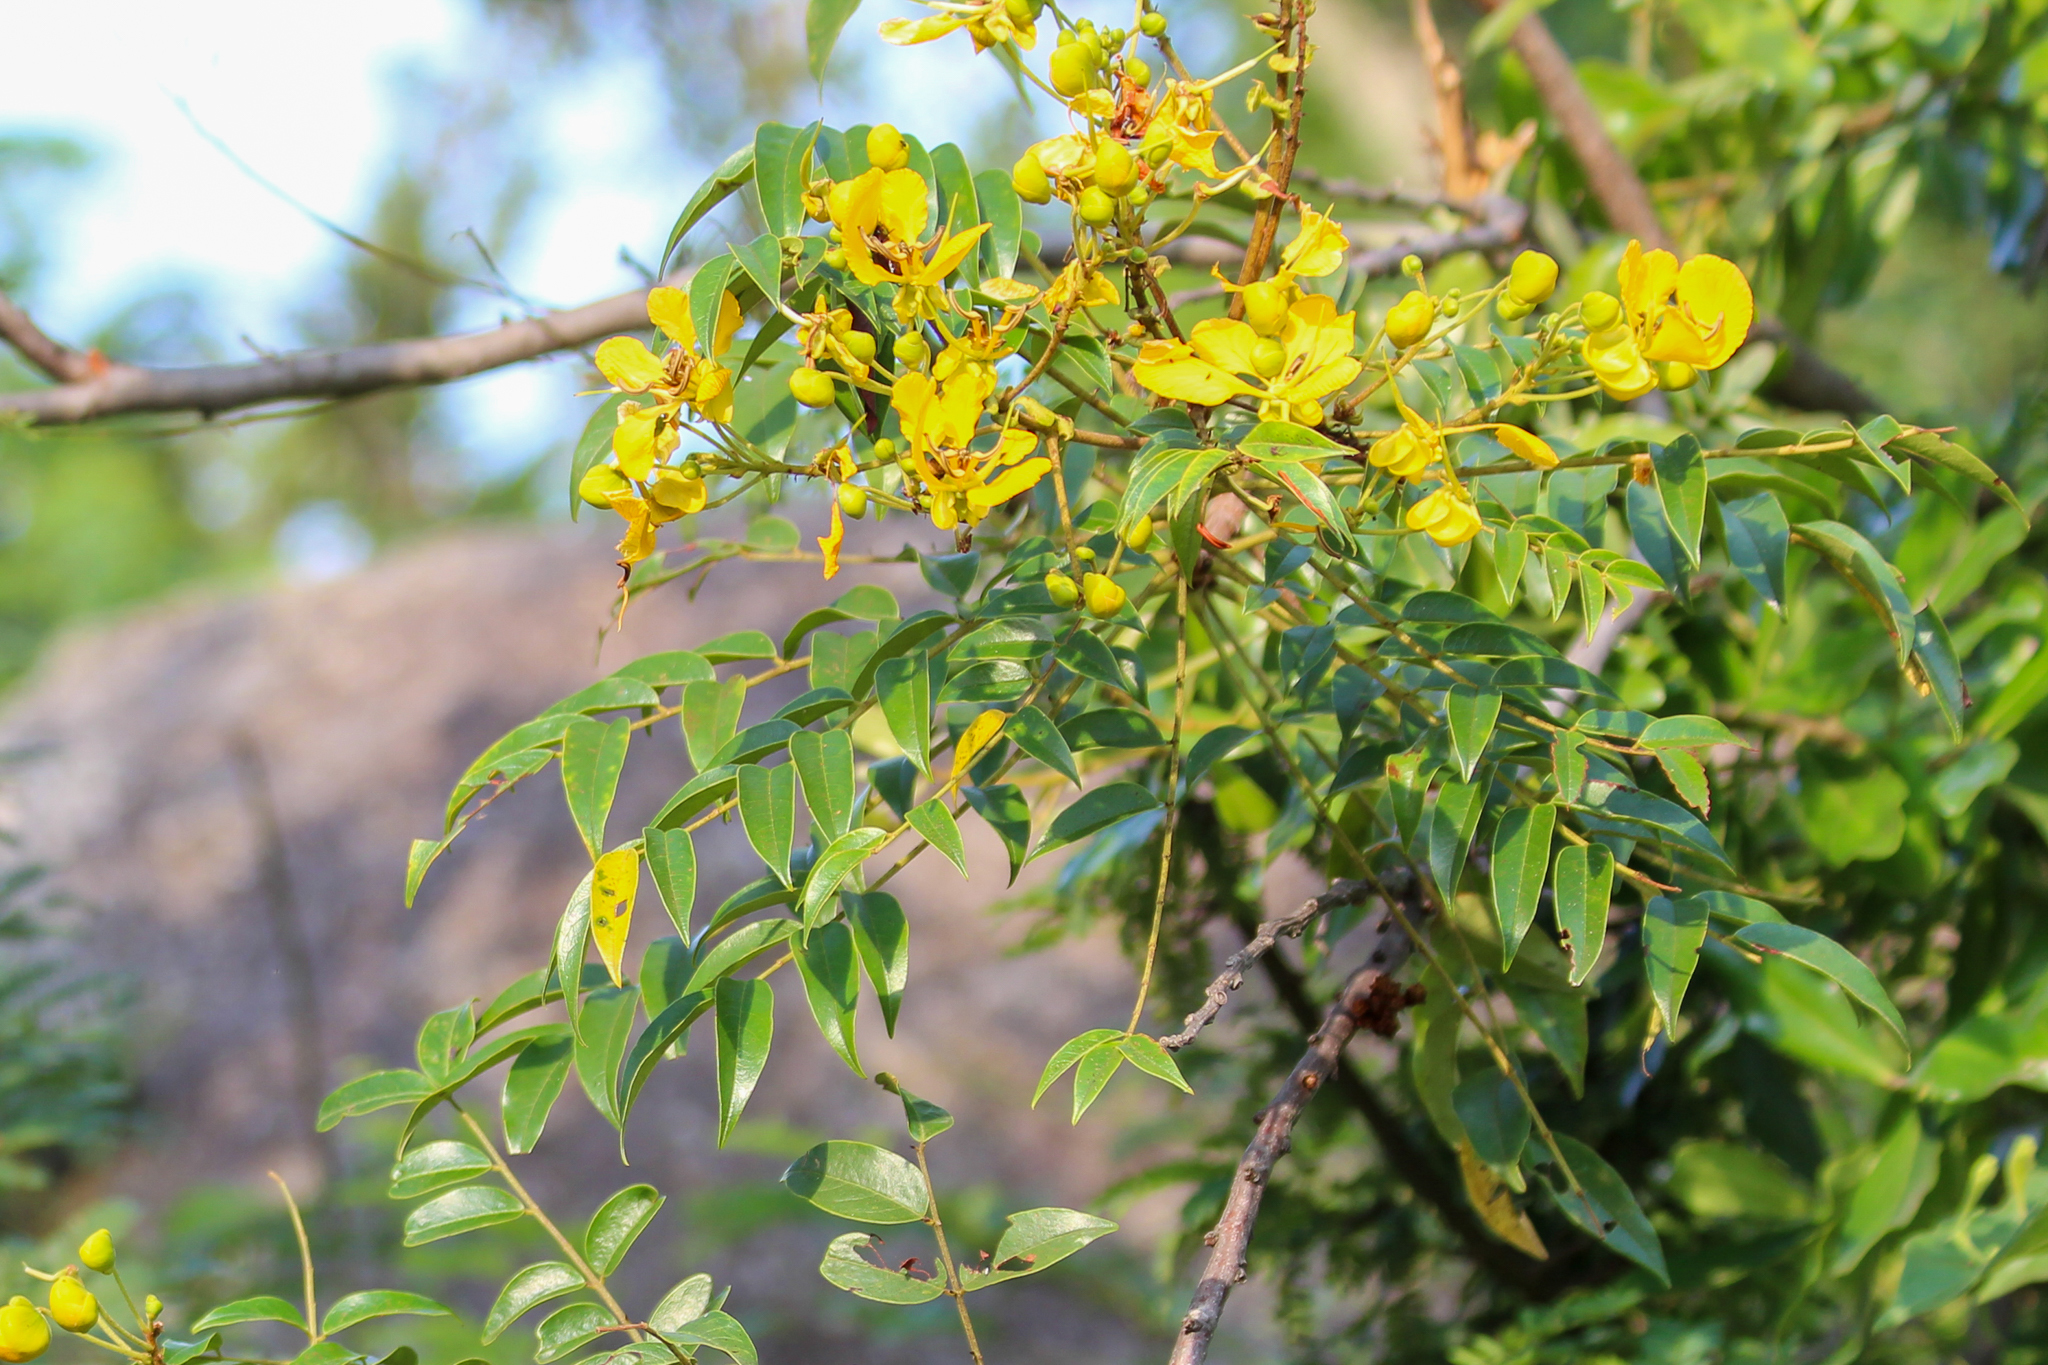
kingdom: Plantae
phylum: Tracheophyta
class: Magnoliopsida
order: Fabales
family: Fabaceae
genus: Senna
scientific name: Senna petersiana
